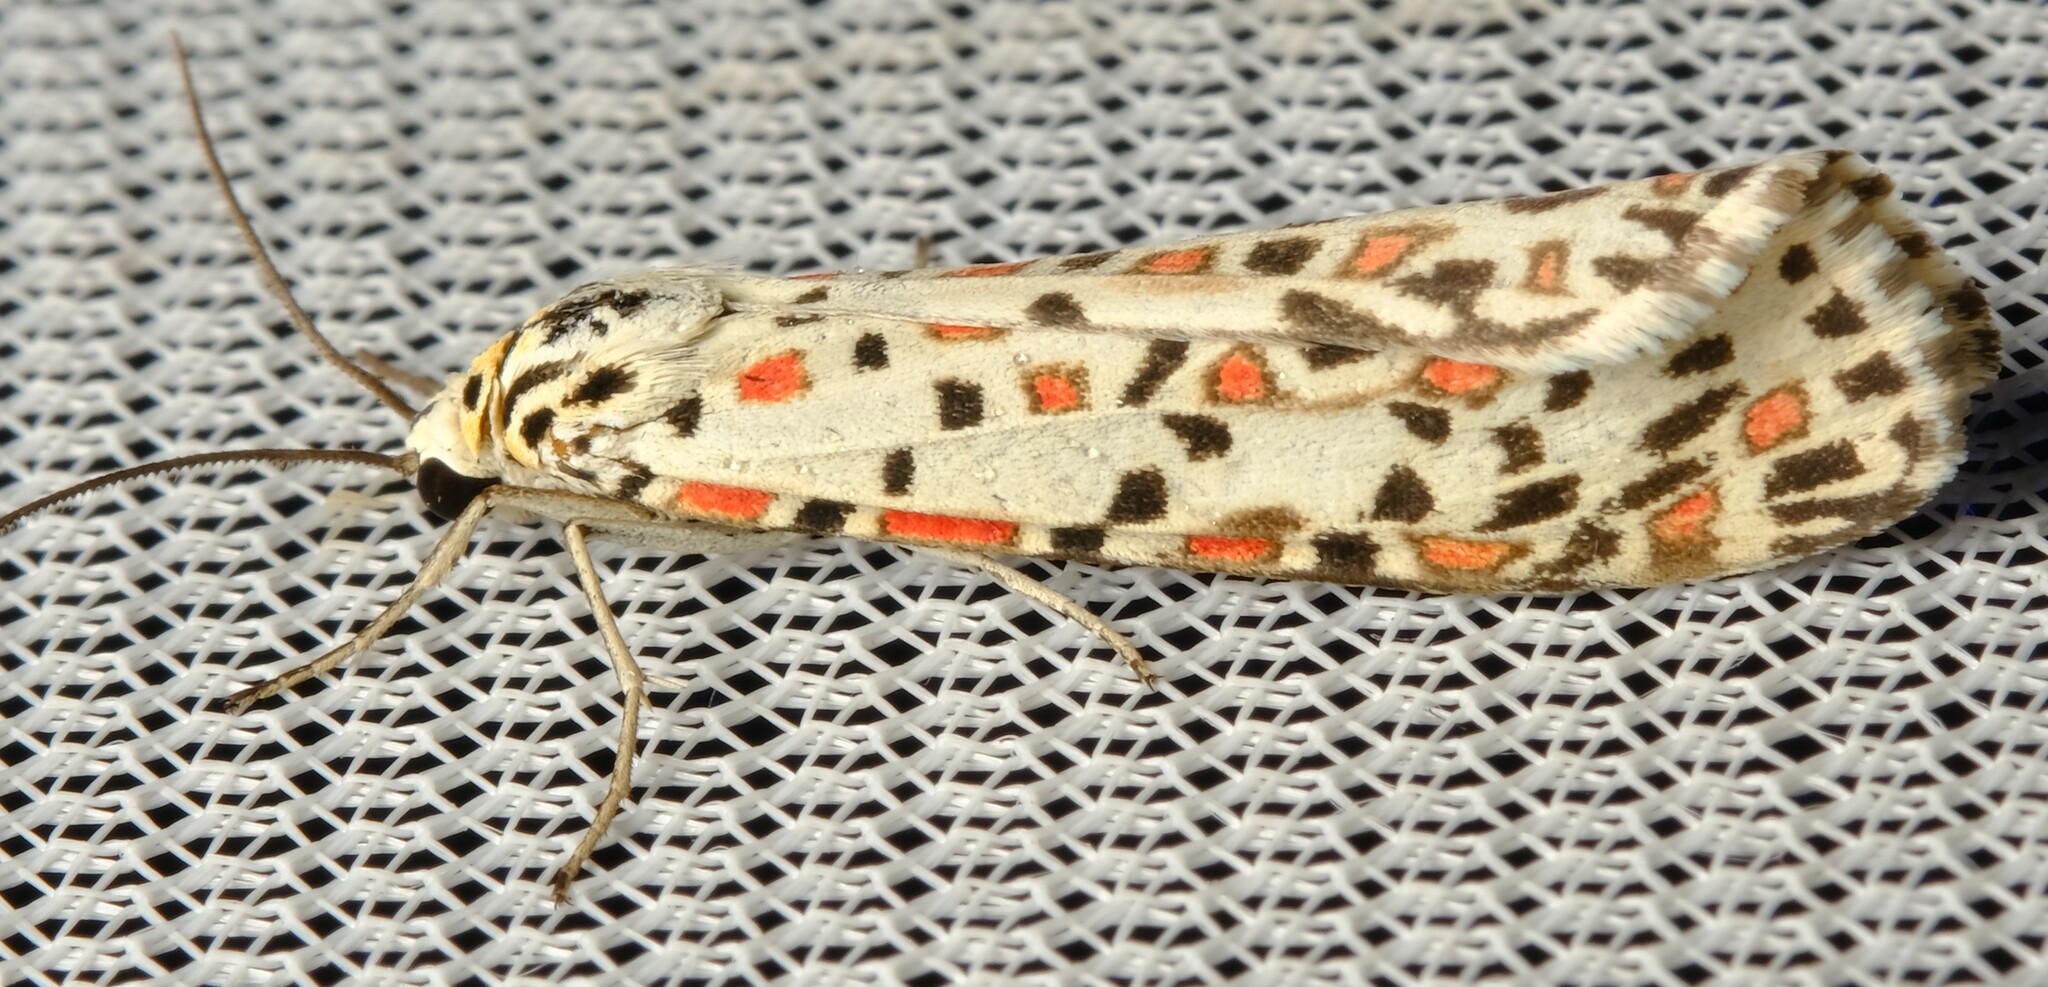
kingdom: Animalia
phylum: Arthropoda
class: Insecta
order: Lepidoptera
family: Erebidae
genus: Utetheisa
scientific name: Utetheisa pulchelloides
